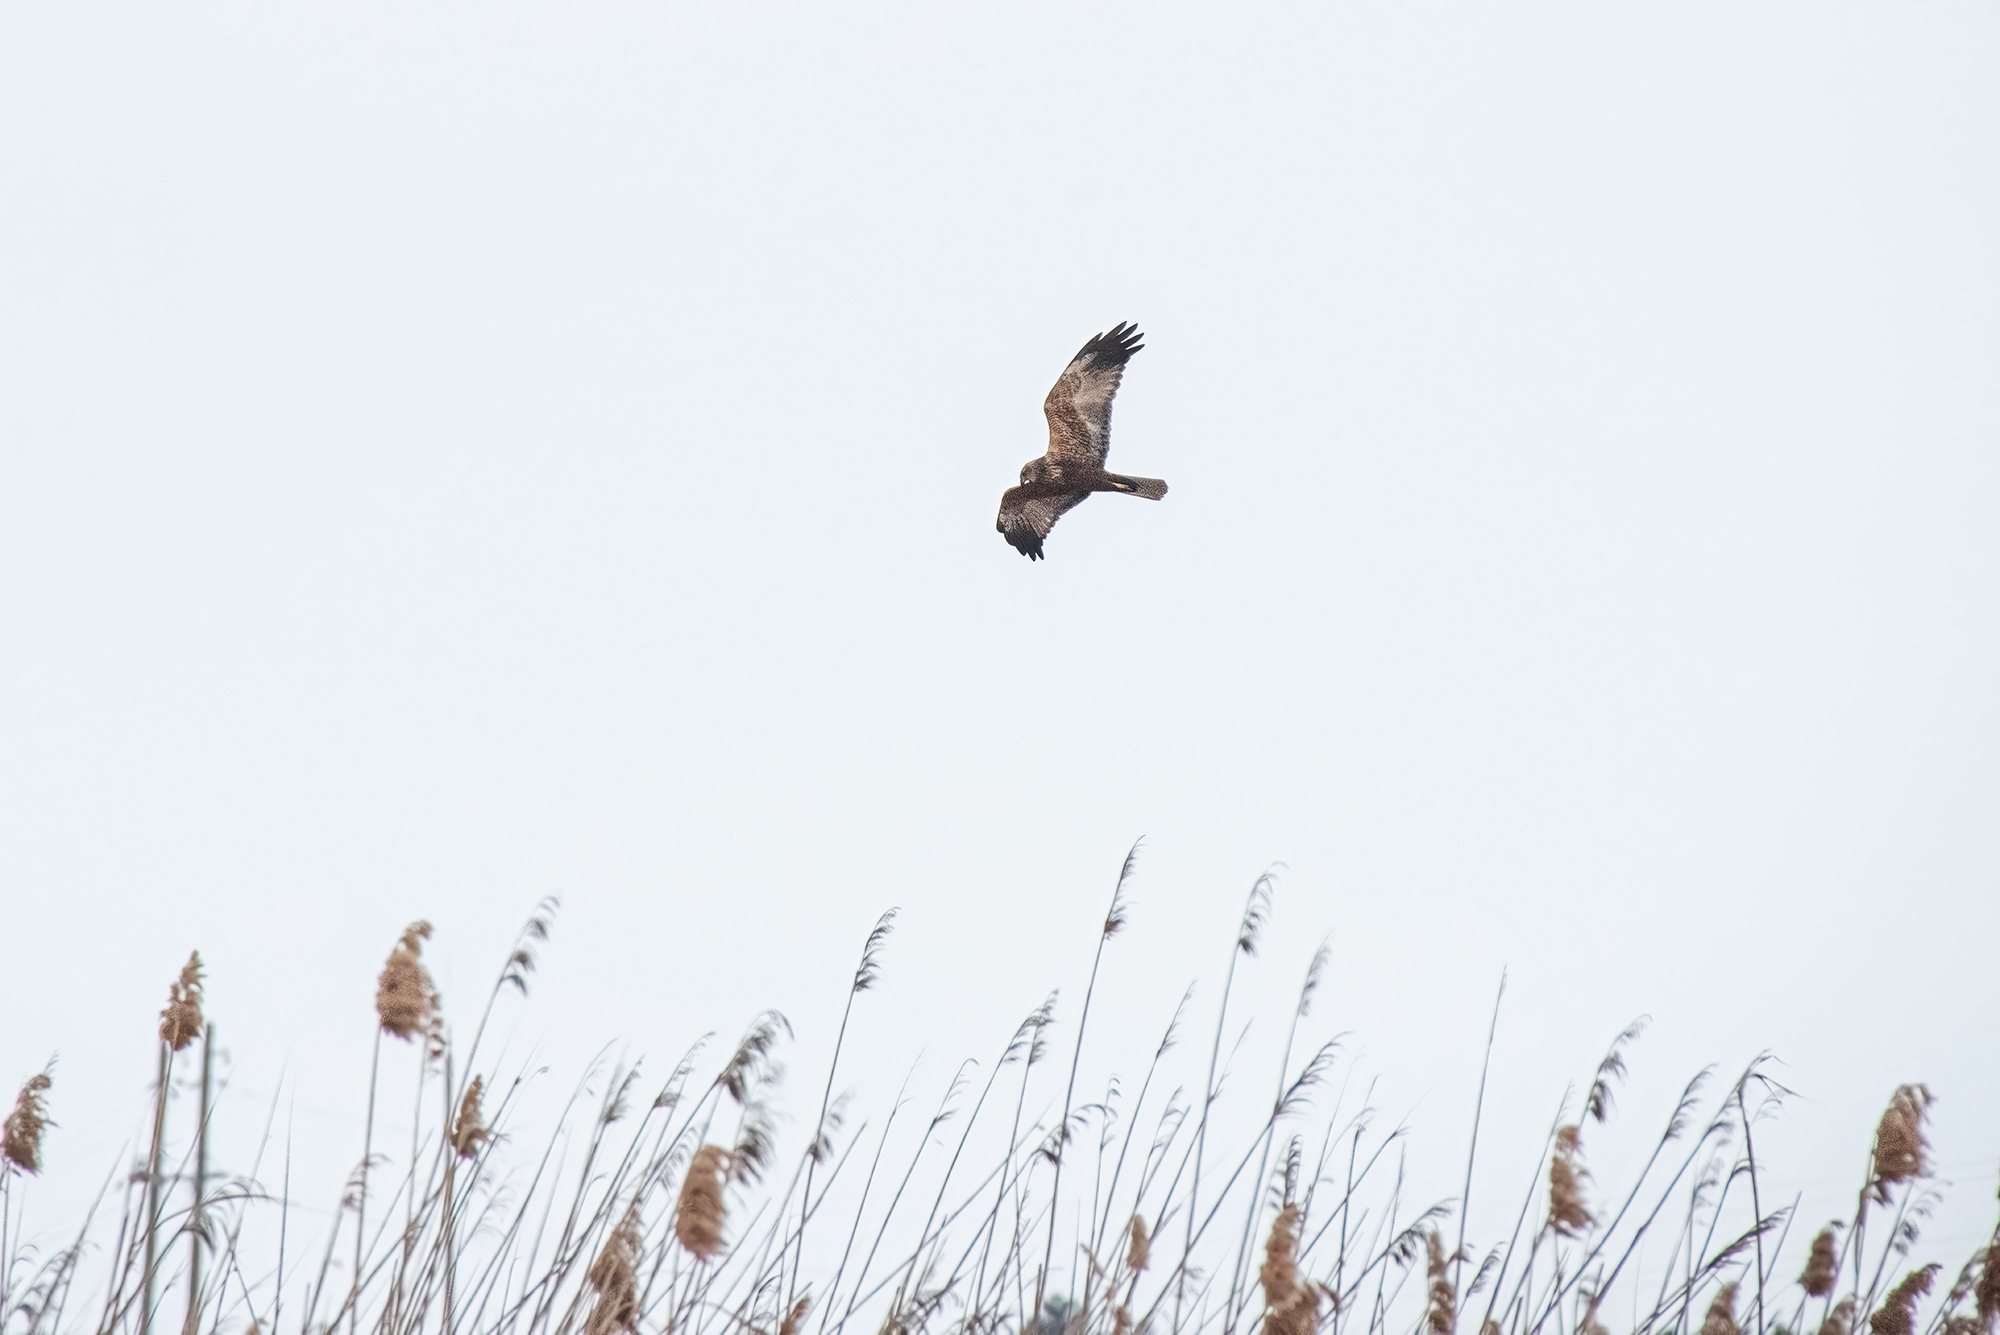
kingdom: Animalia
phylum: Chordata
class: Aves
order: Accipitriformes
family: Accipitridae
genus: Circus
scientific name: Circus aeruginosus
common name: Western marsh harrier
